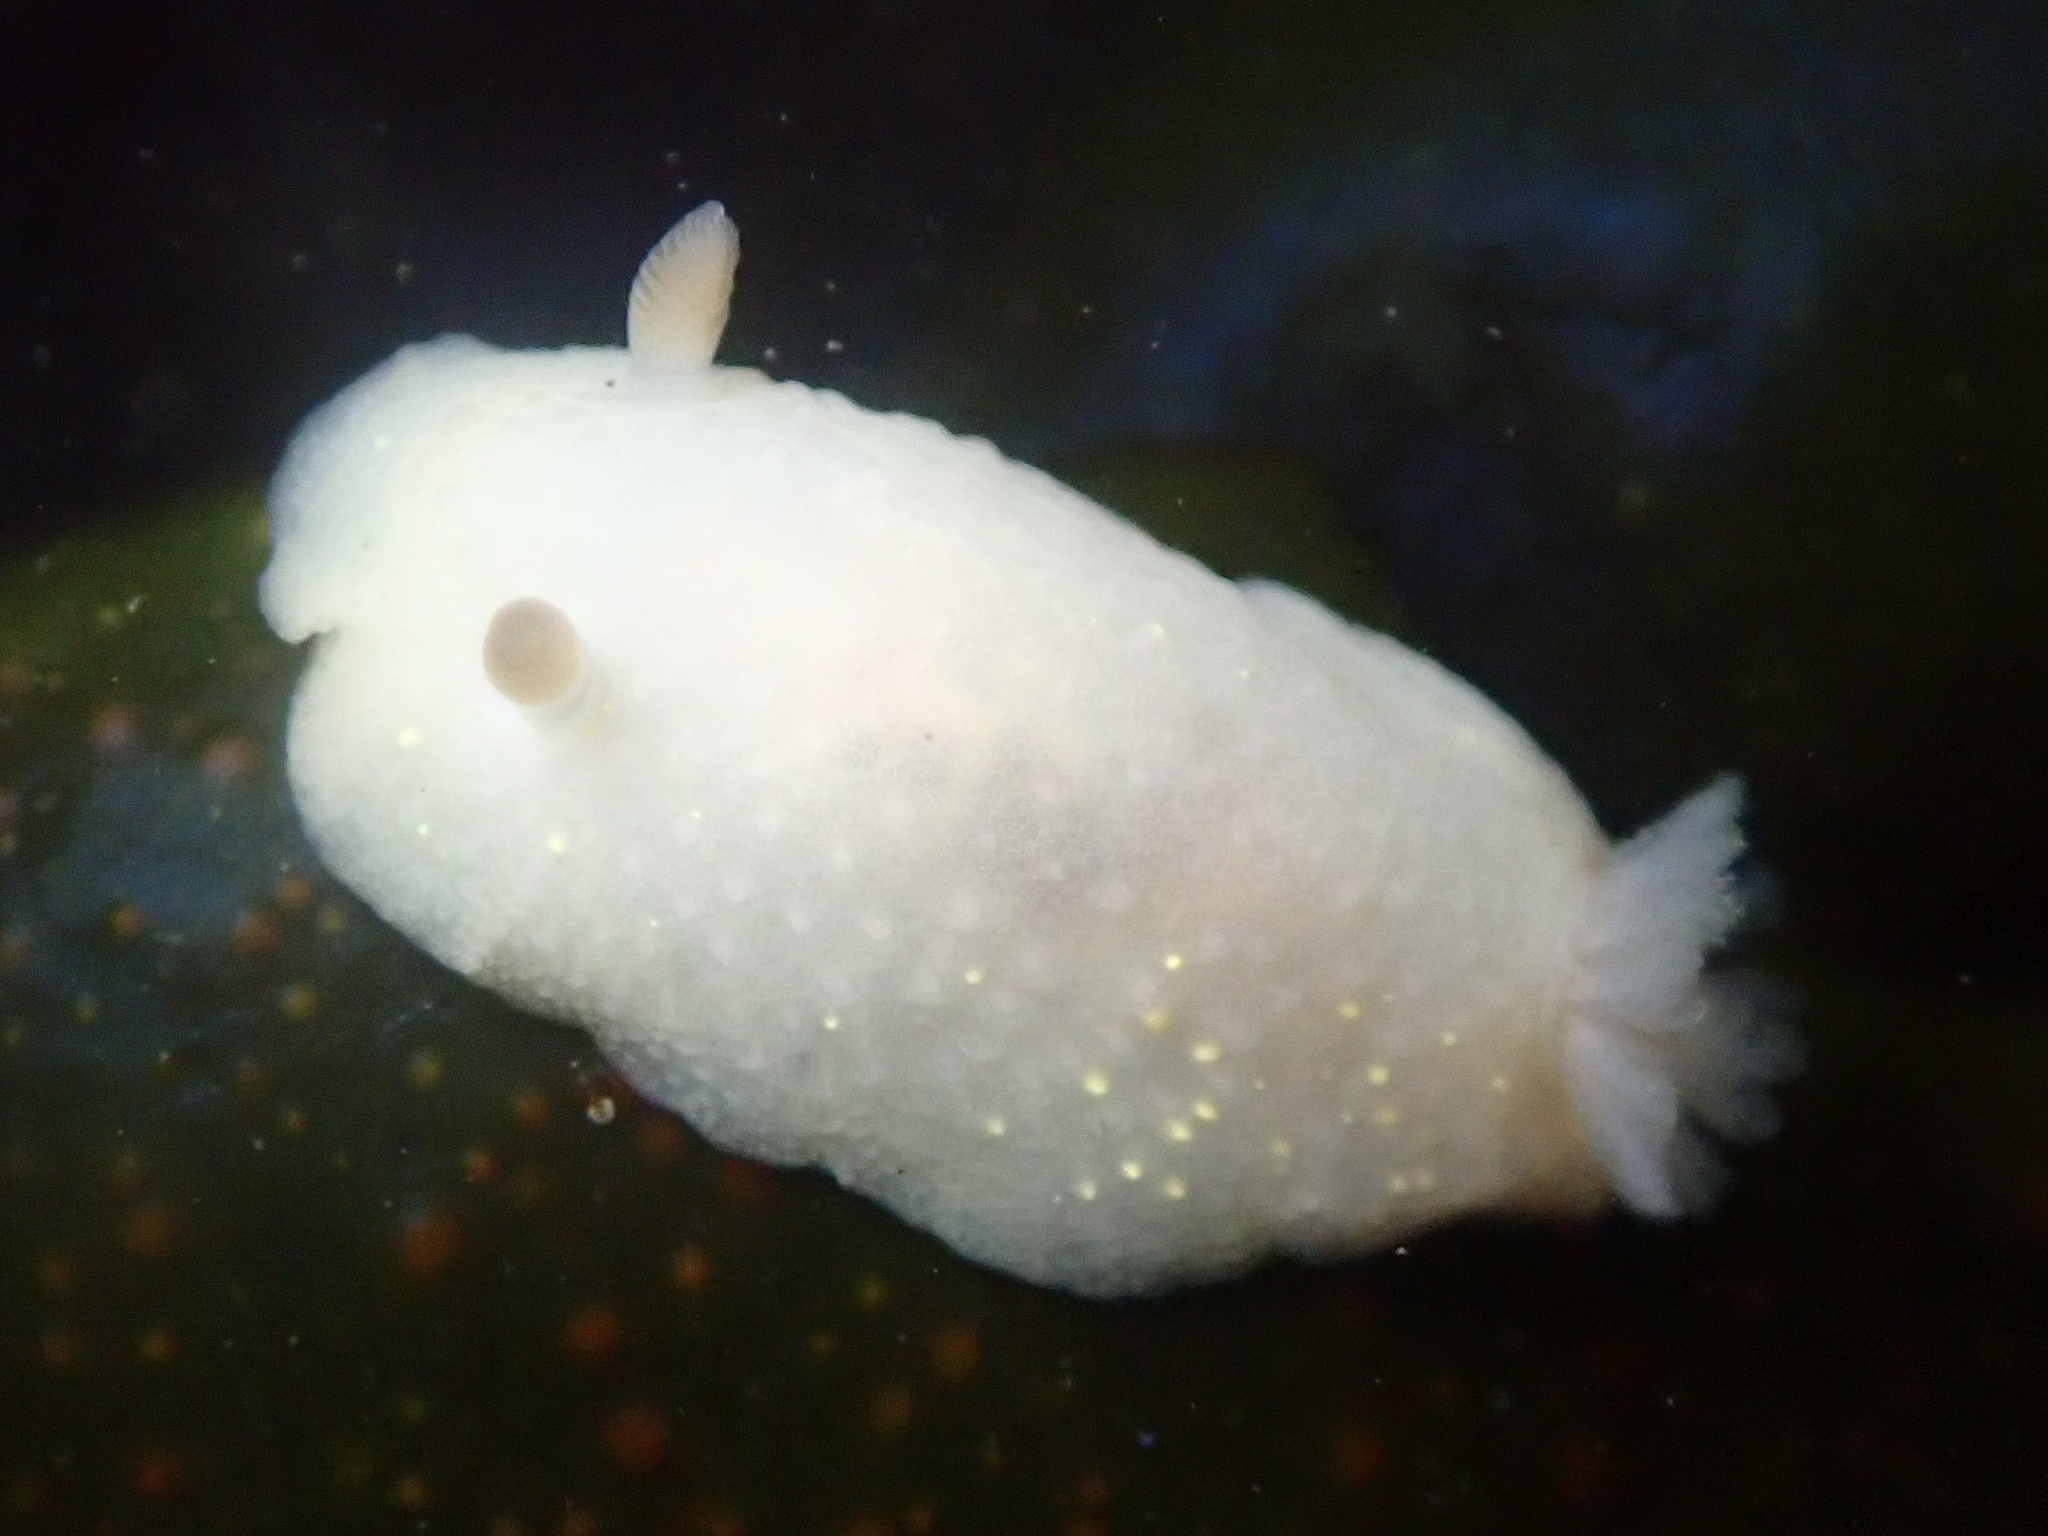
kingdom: Animalia
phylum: Mollusca
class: Gastropoda
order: Nudibranchia
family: Cadlinidae
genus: Cadlina
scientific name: Cadlina modesta
